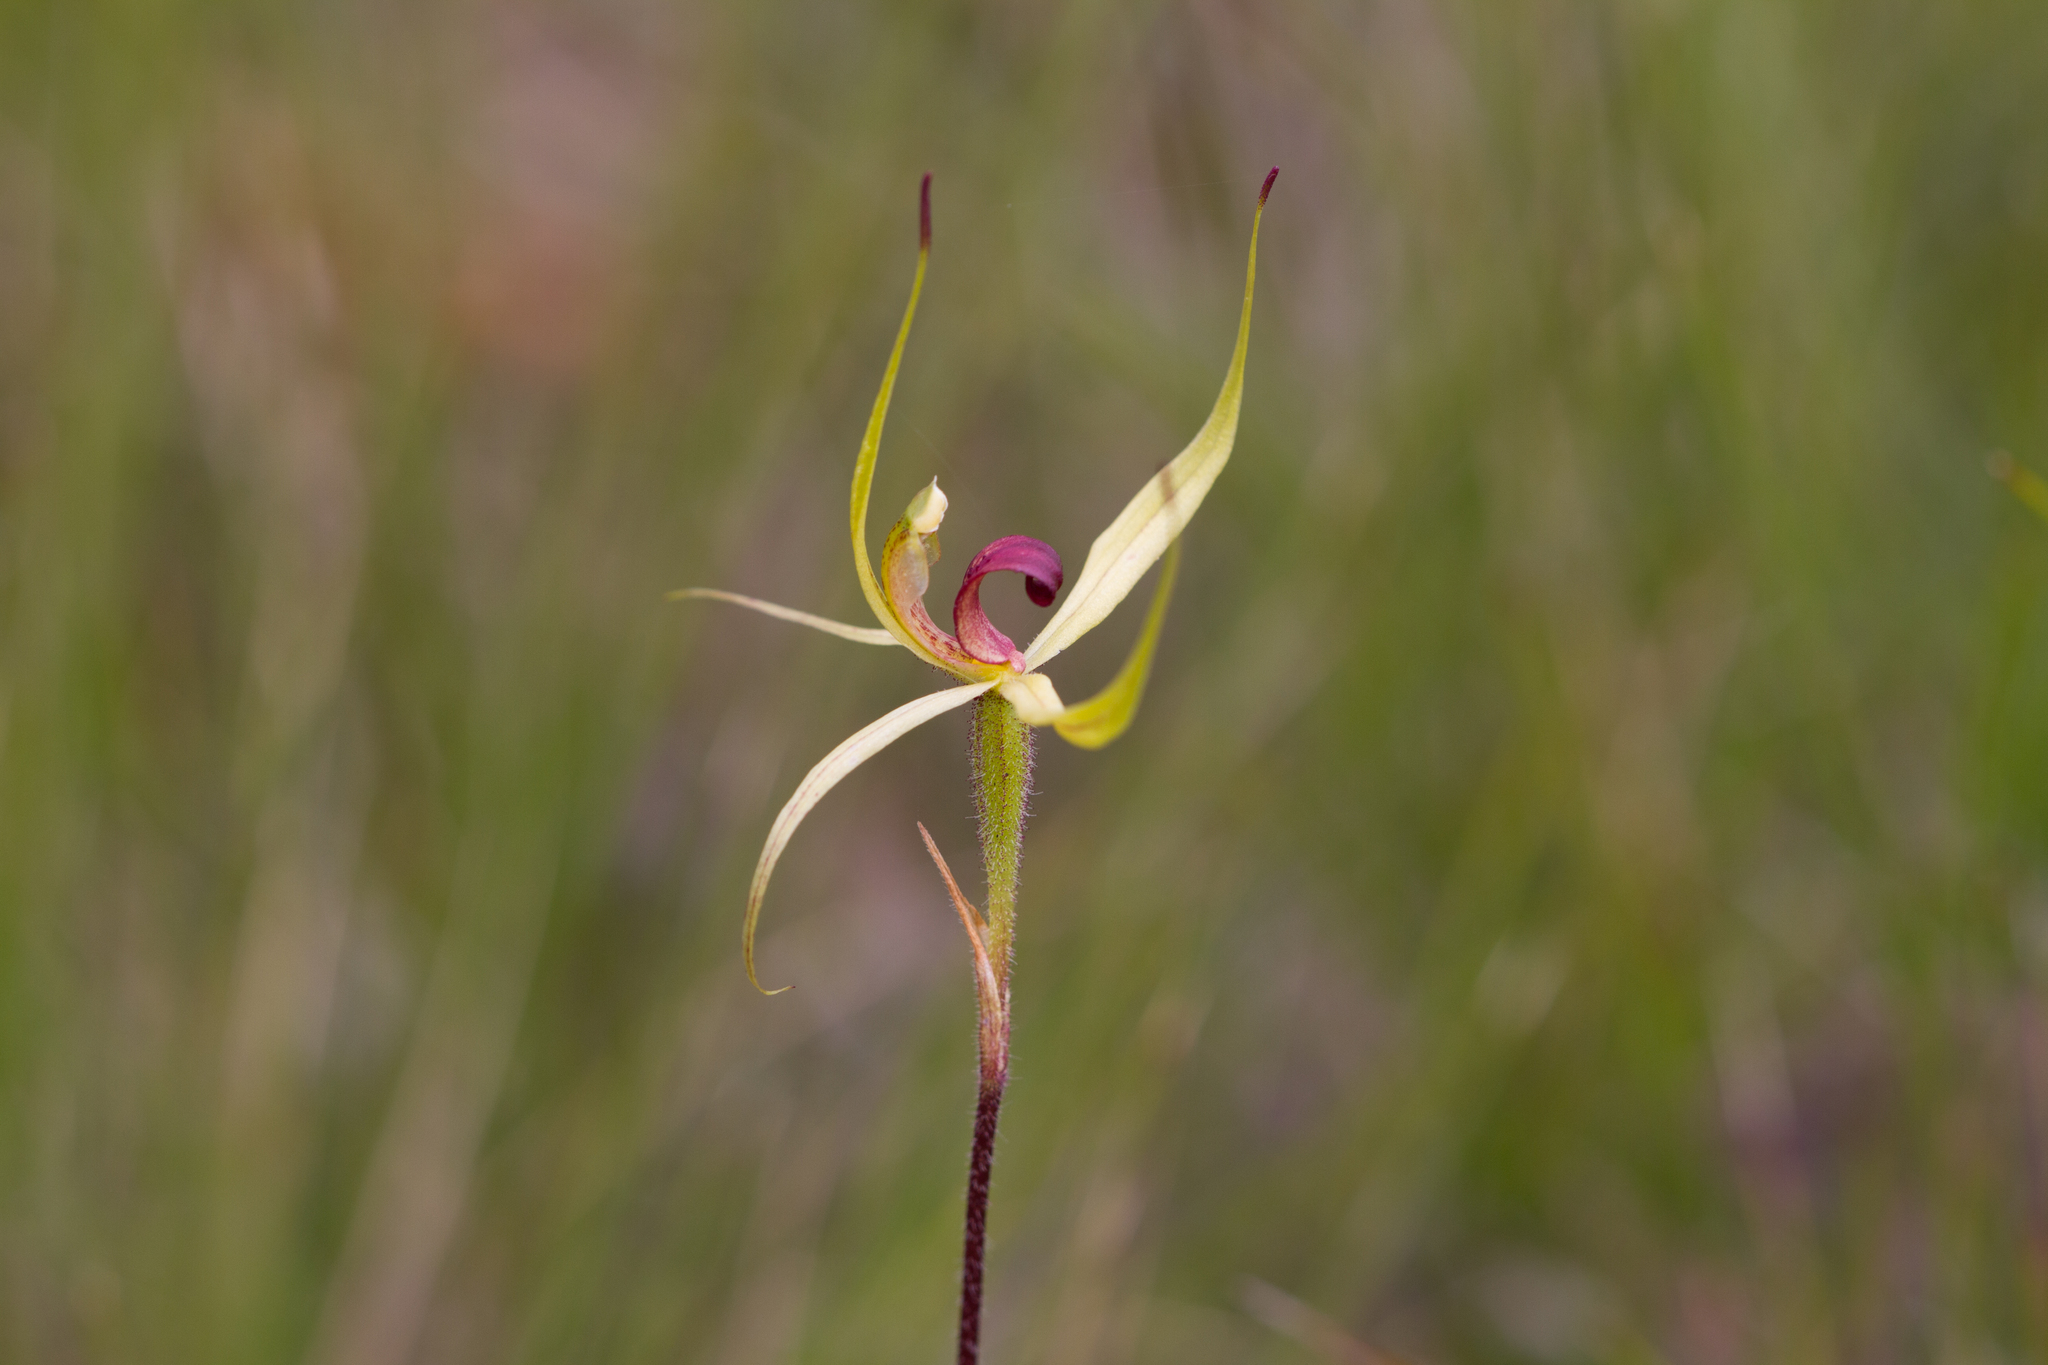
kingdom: Plantae
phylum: Tracheophyta
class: Liliopsida
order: Asparagales
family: Orchidaceae
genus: Caladenia
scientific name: Caladenia leptochila
